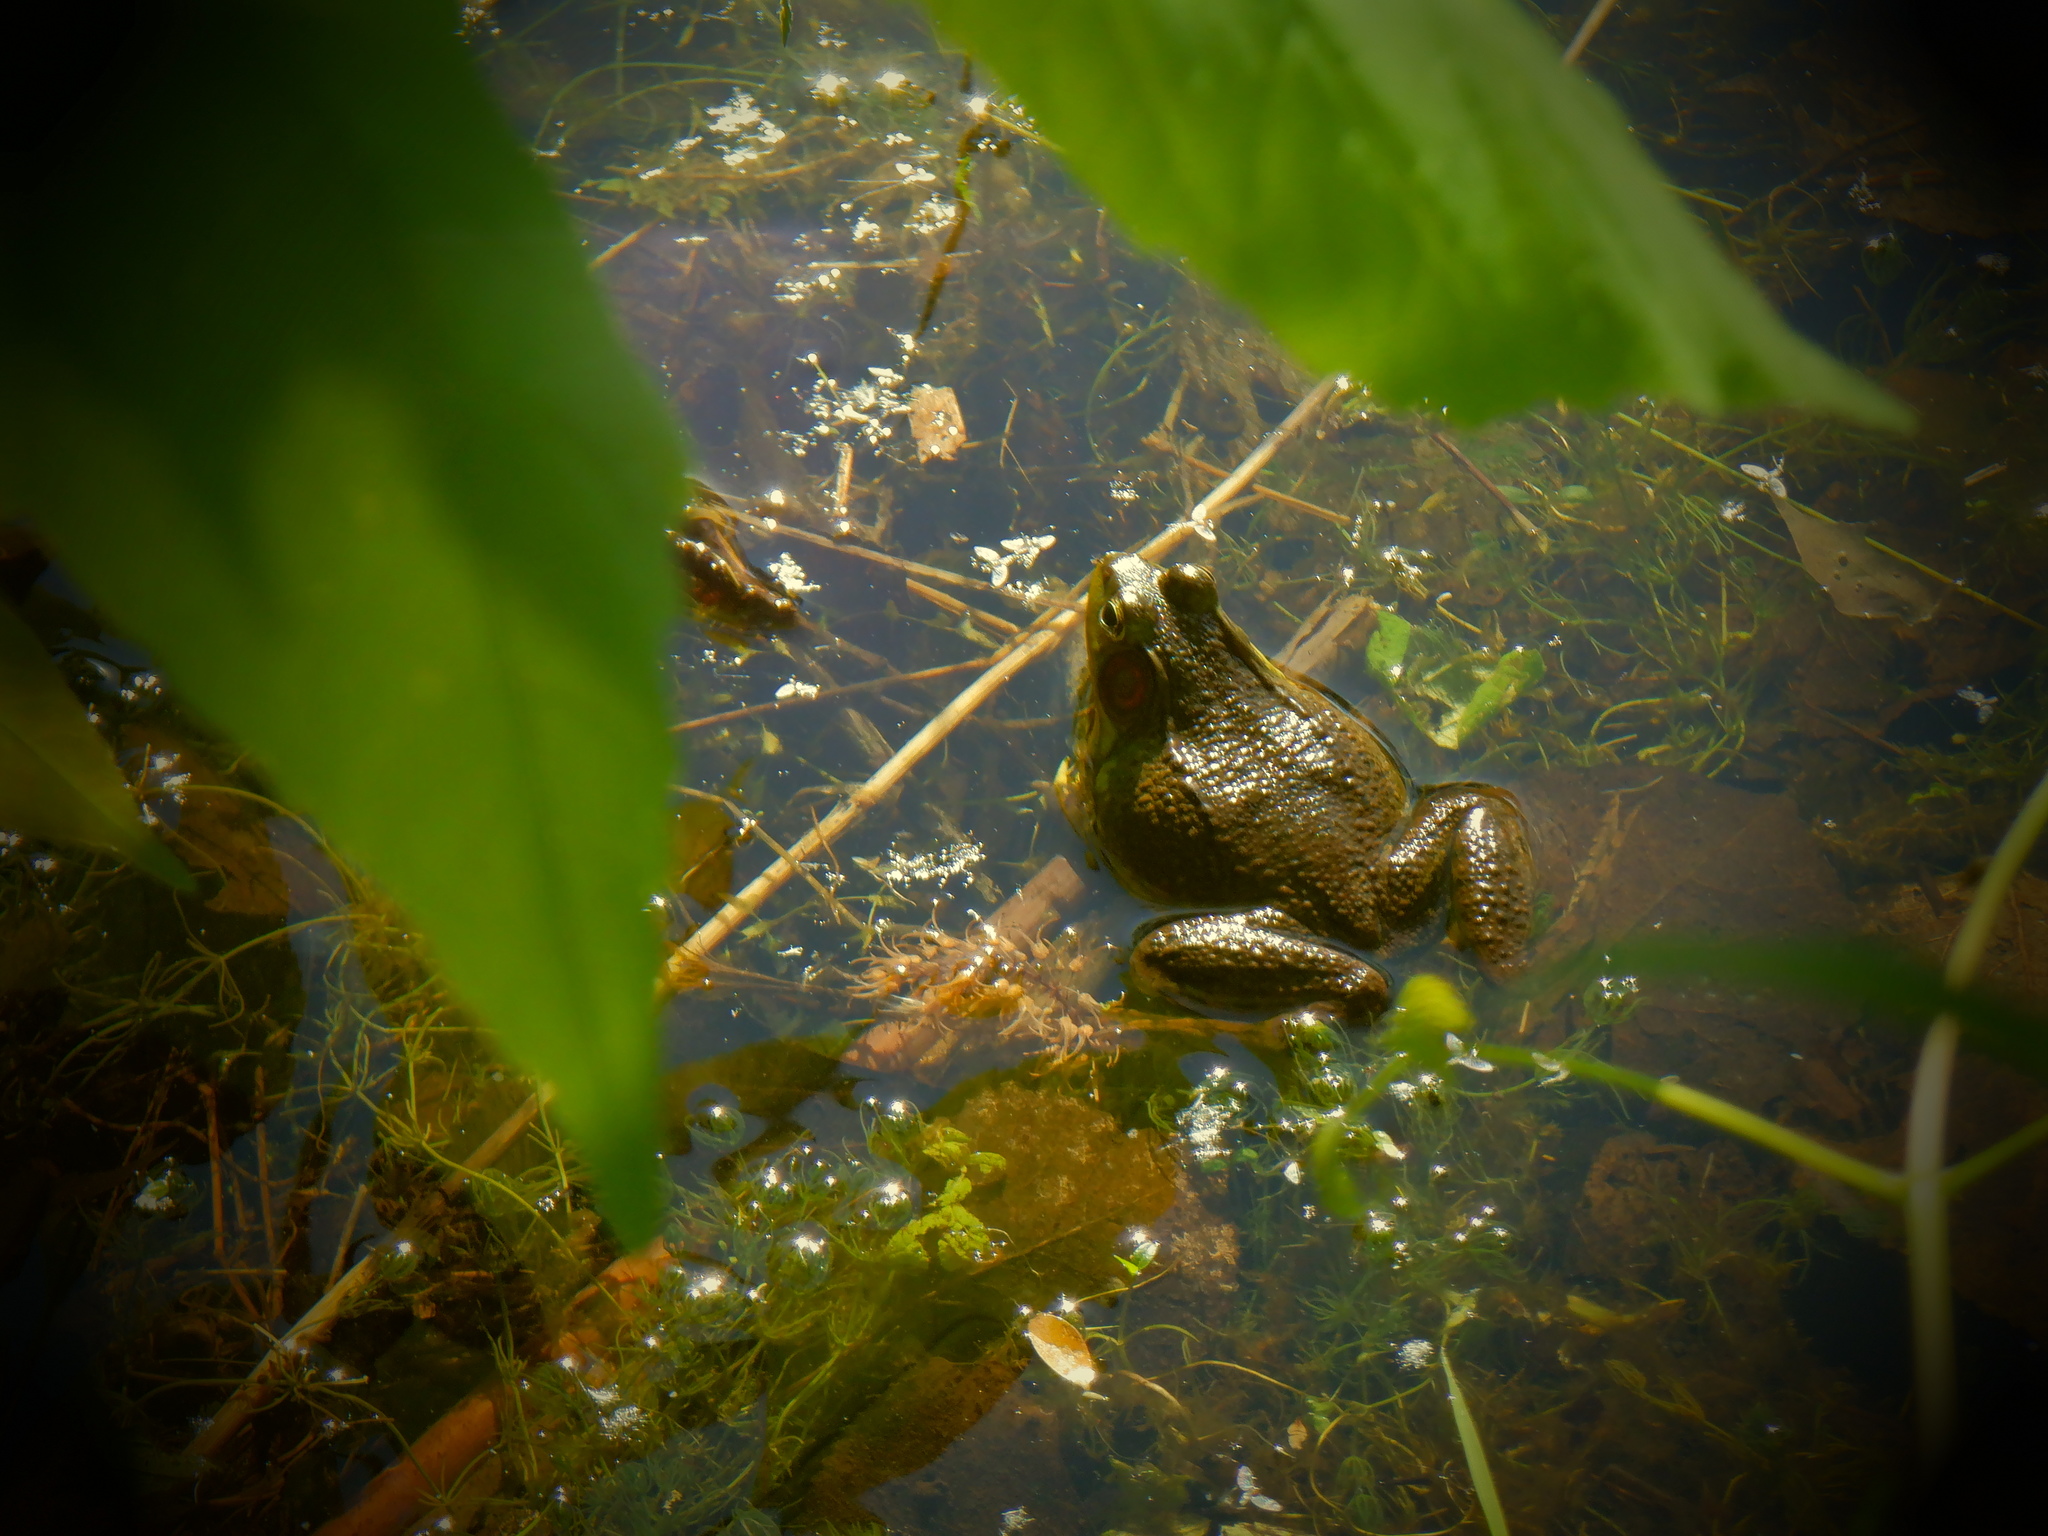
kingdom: Animalia
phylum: Chordata
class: Amphibia
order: Anura
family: Ranidae
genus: Lithobates
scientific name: Lithobates clamitans
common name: Green frog
